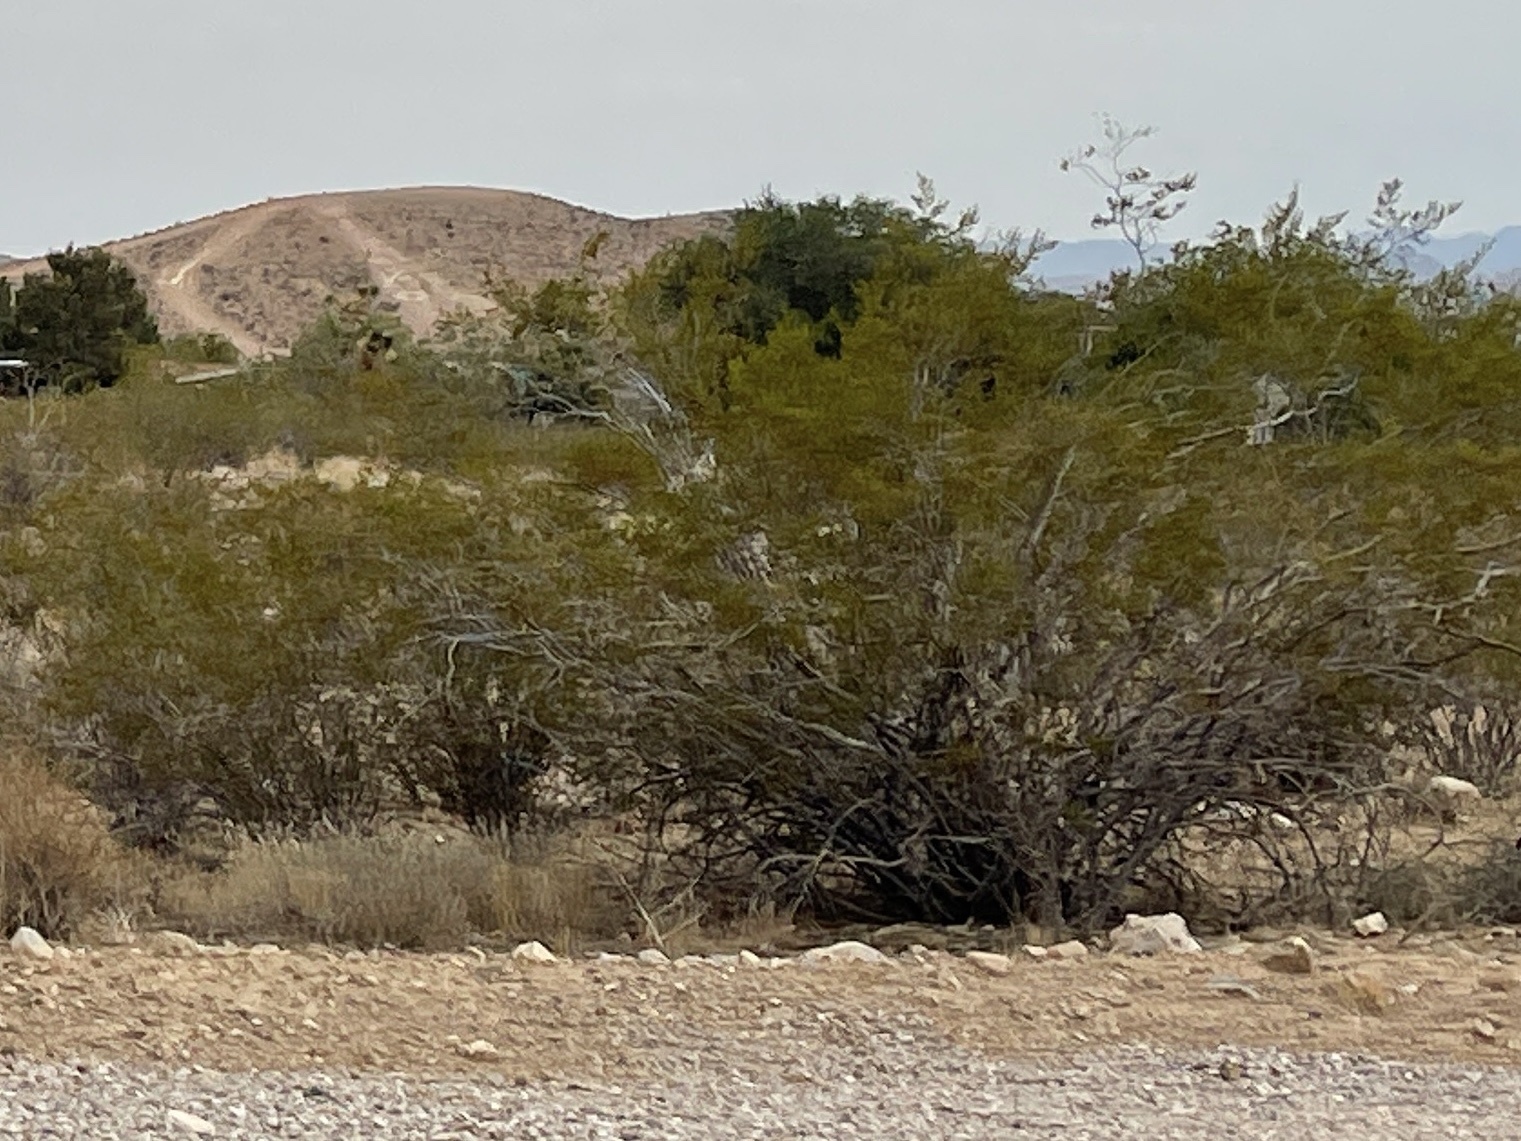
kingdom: Plantae
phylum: Tracheophyta
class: Magnoliopsida
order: Zygophyllales
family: Zygophyllaceae
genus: Larrea
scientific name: Larrea tridentata
